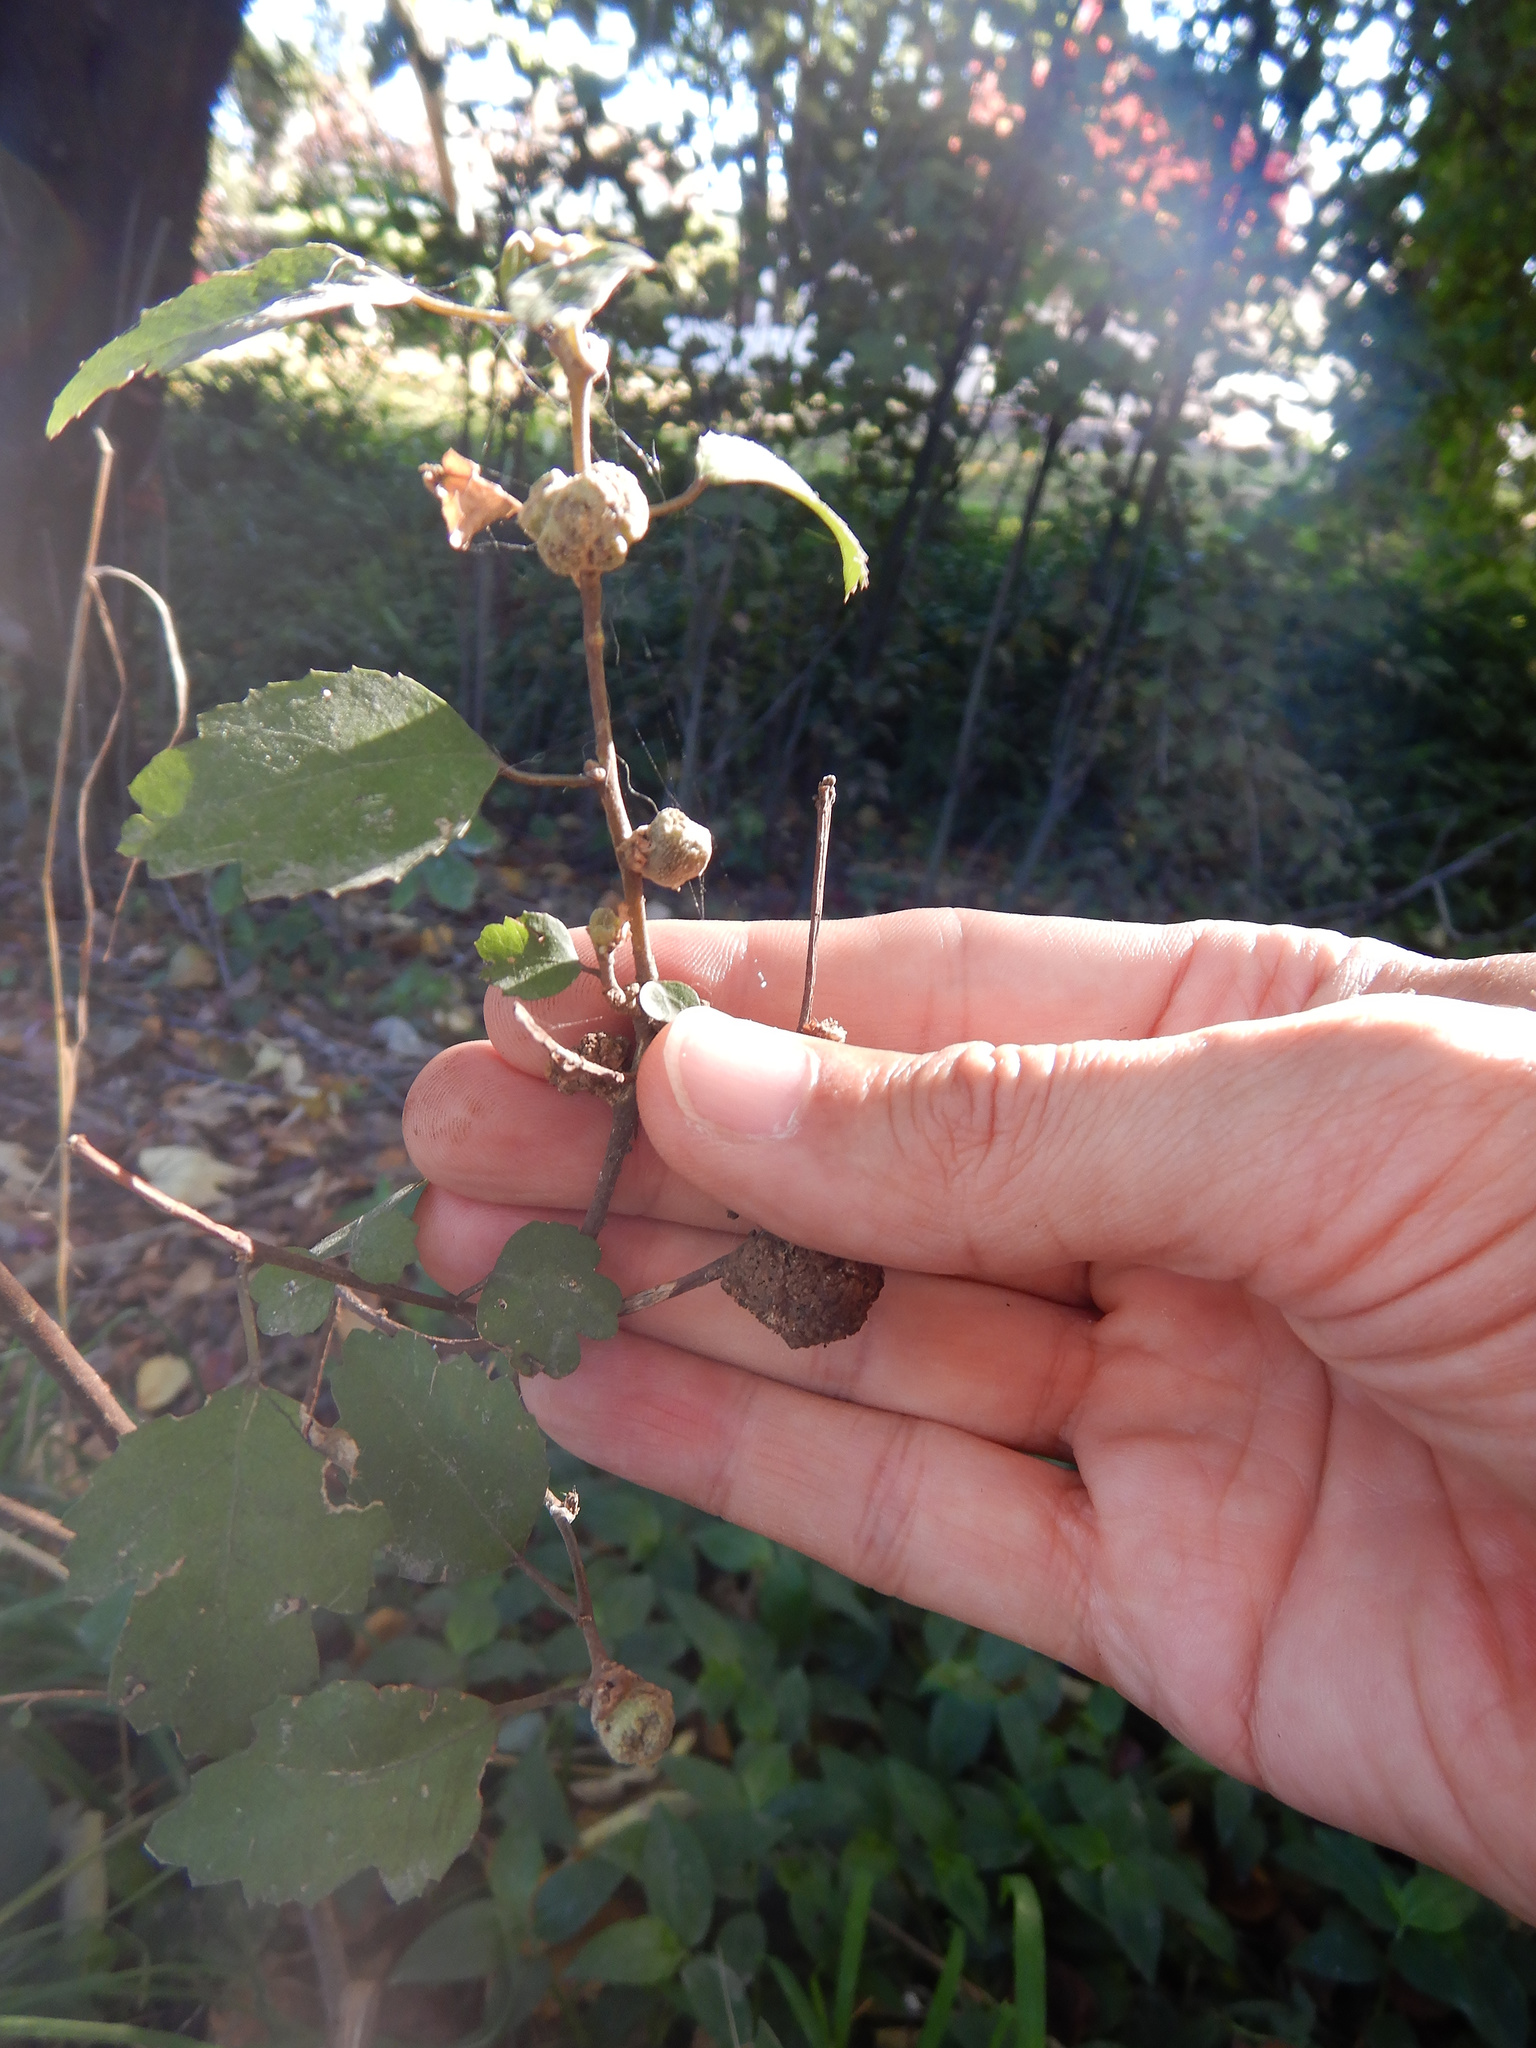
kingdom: Animalia
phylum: Arthropoda
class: Arachnida
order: Trombidiformes
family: Eriophyidae
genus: Eriophyes
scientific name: Eriophyes hoheriae
